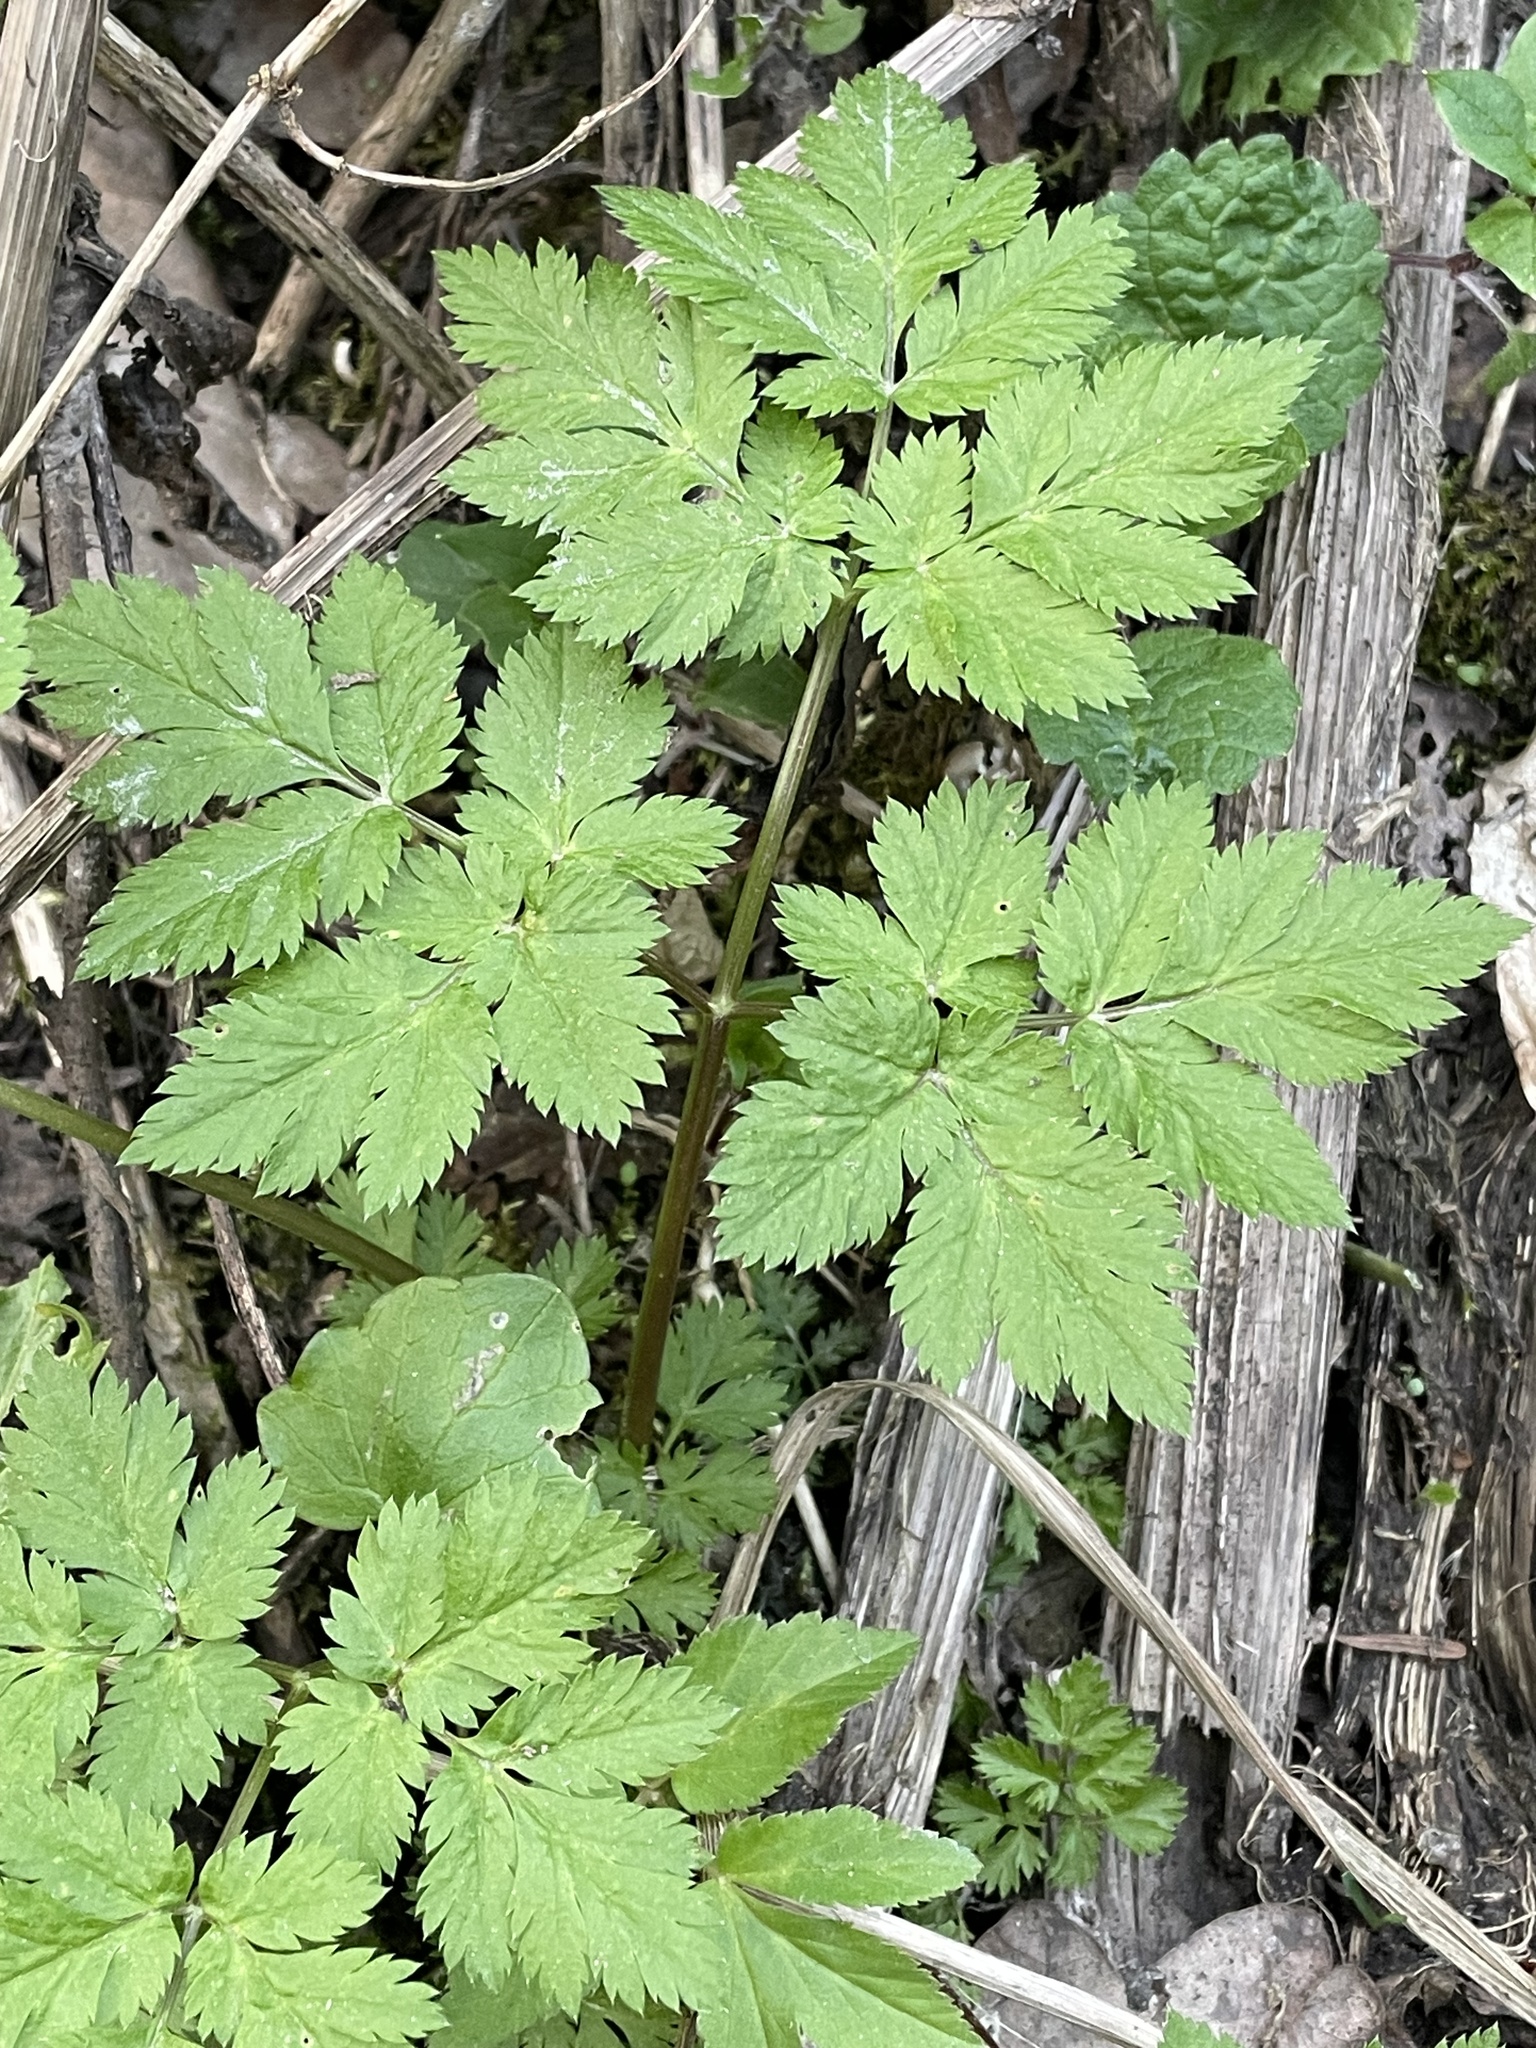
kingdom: Plantae
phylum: Tracheophyta
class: Magnoliopsida
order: Apiales
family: Apiaceae
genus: Chaerophyllum
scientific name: Chaerophyllum hirsutum
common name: Hairy chervil
